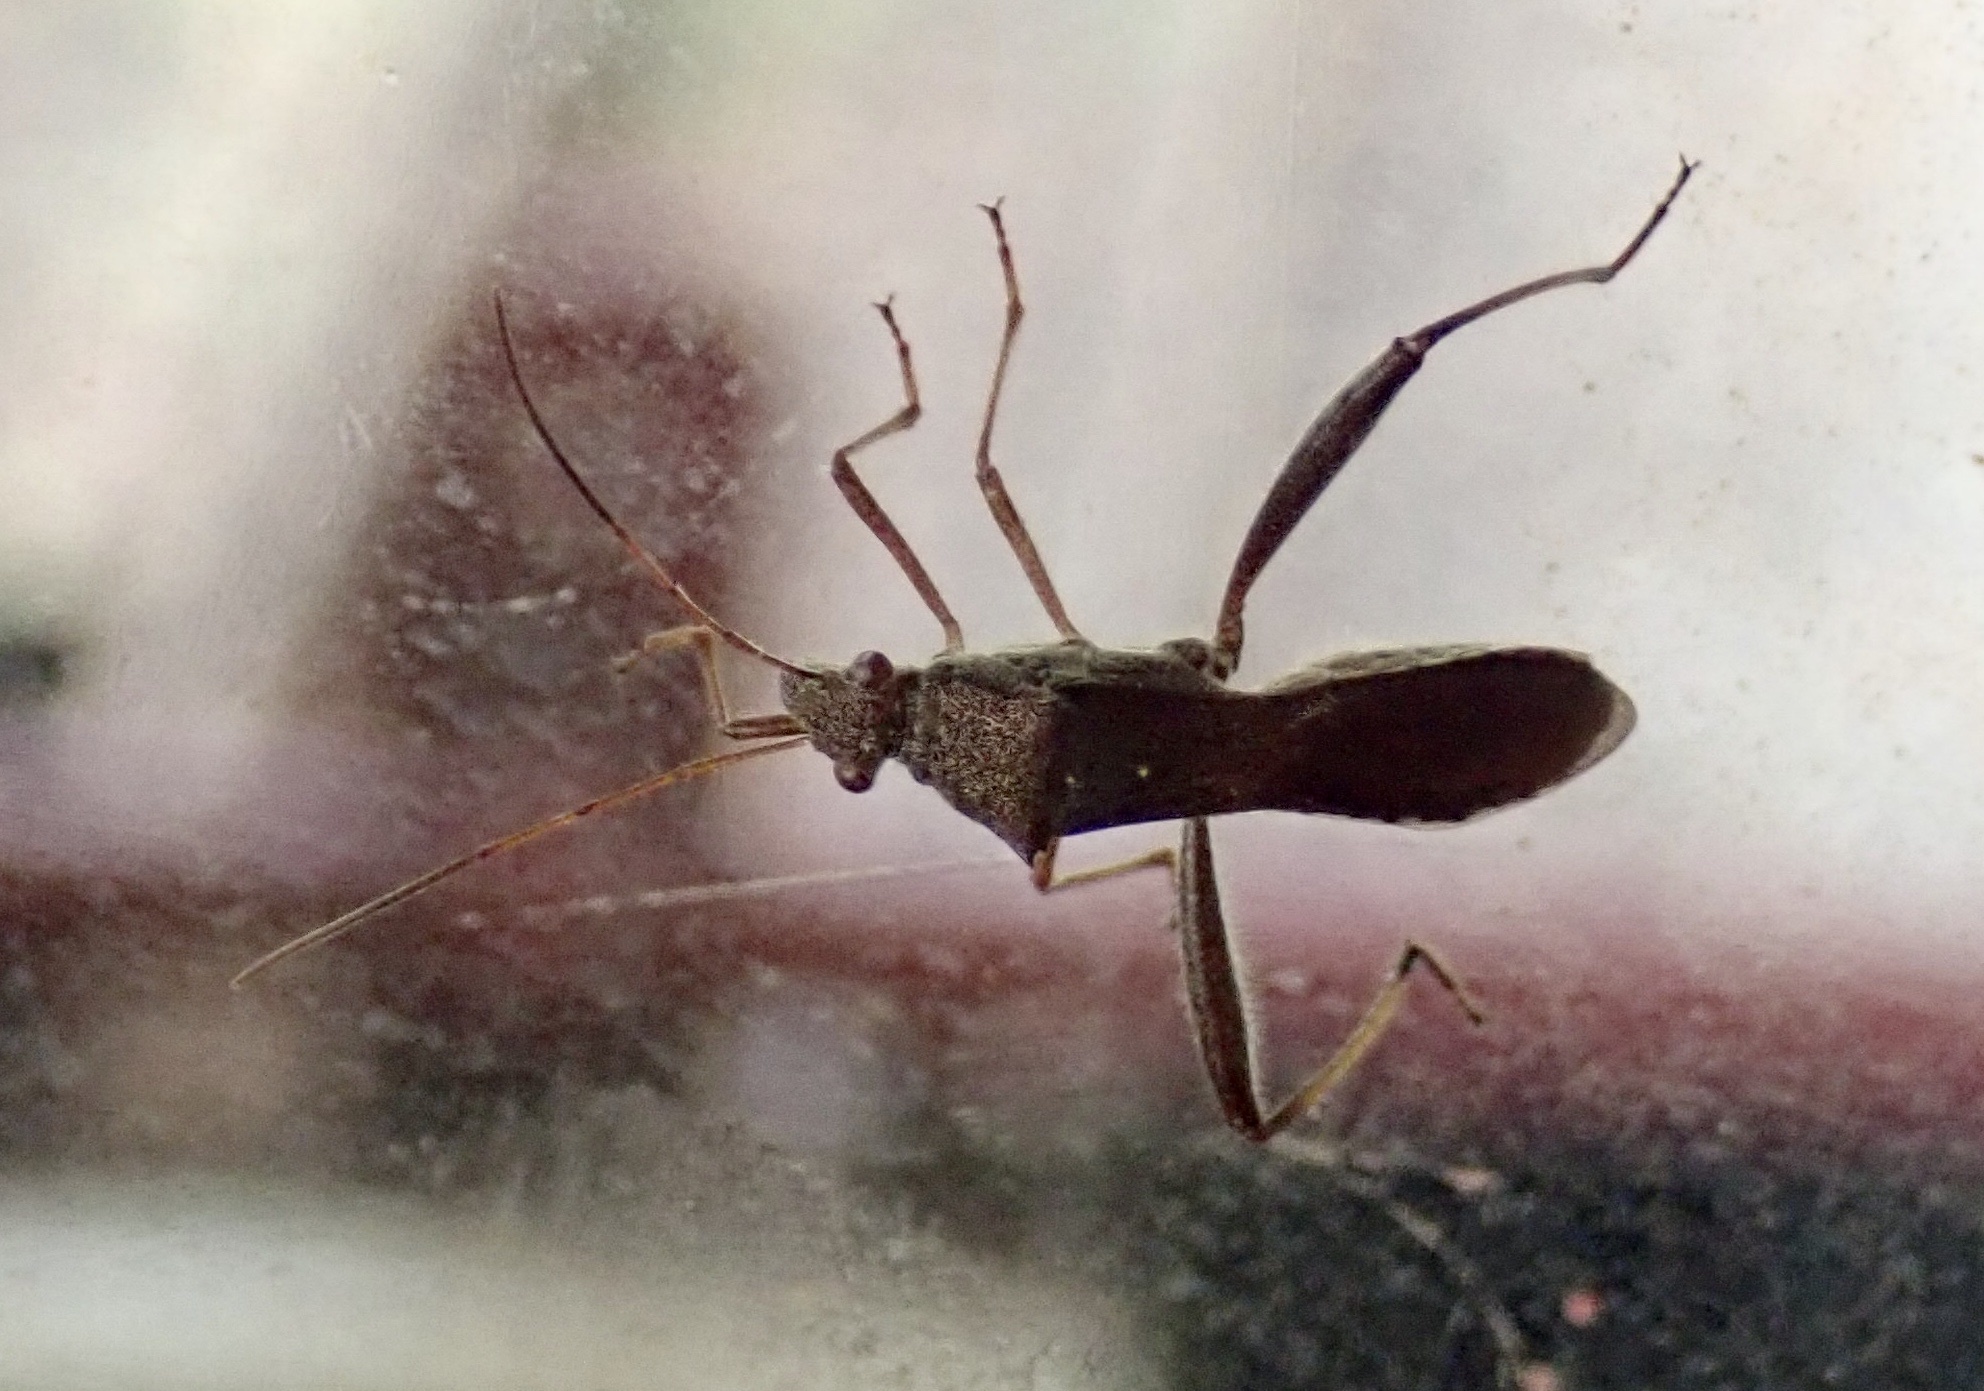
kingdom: Animalia
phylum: Arthropoda
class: Insecta
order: Hemiptera
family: Alydidae
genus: Riptortus
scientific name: Riptortus pedestris
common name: Bean bug
